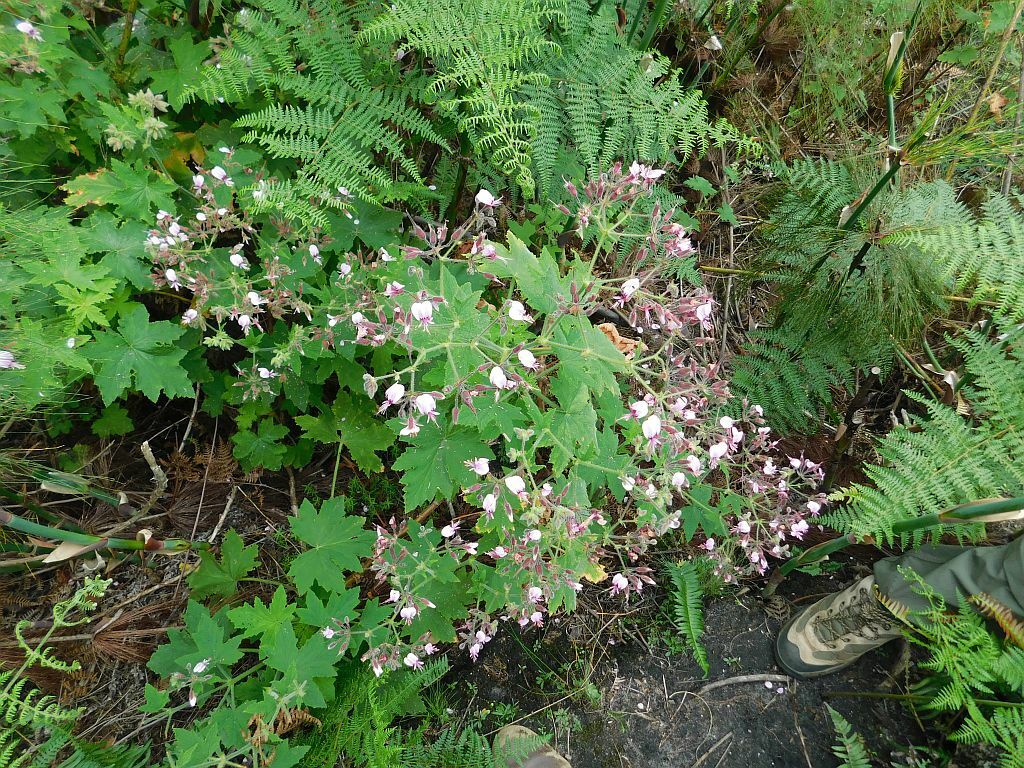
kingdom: Plantae
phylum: Tracheophyta
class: Magnoliopsida
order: Geraniales
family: Geraniaceae
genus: Pelargonium
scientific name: Pelargonium hispidum
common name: Hispid pelargonium
